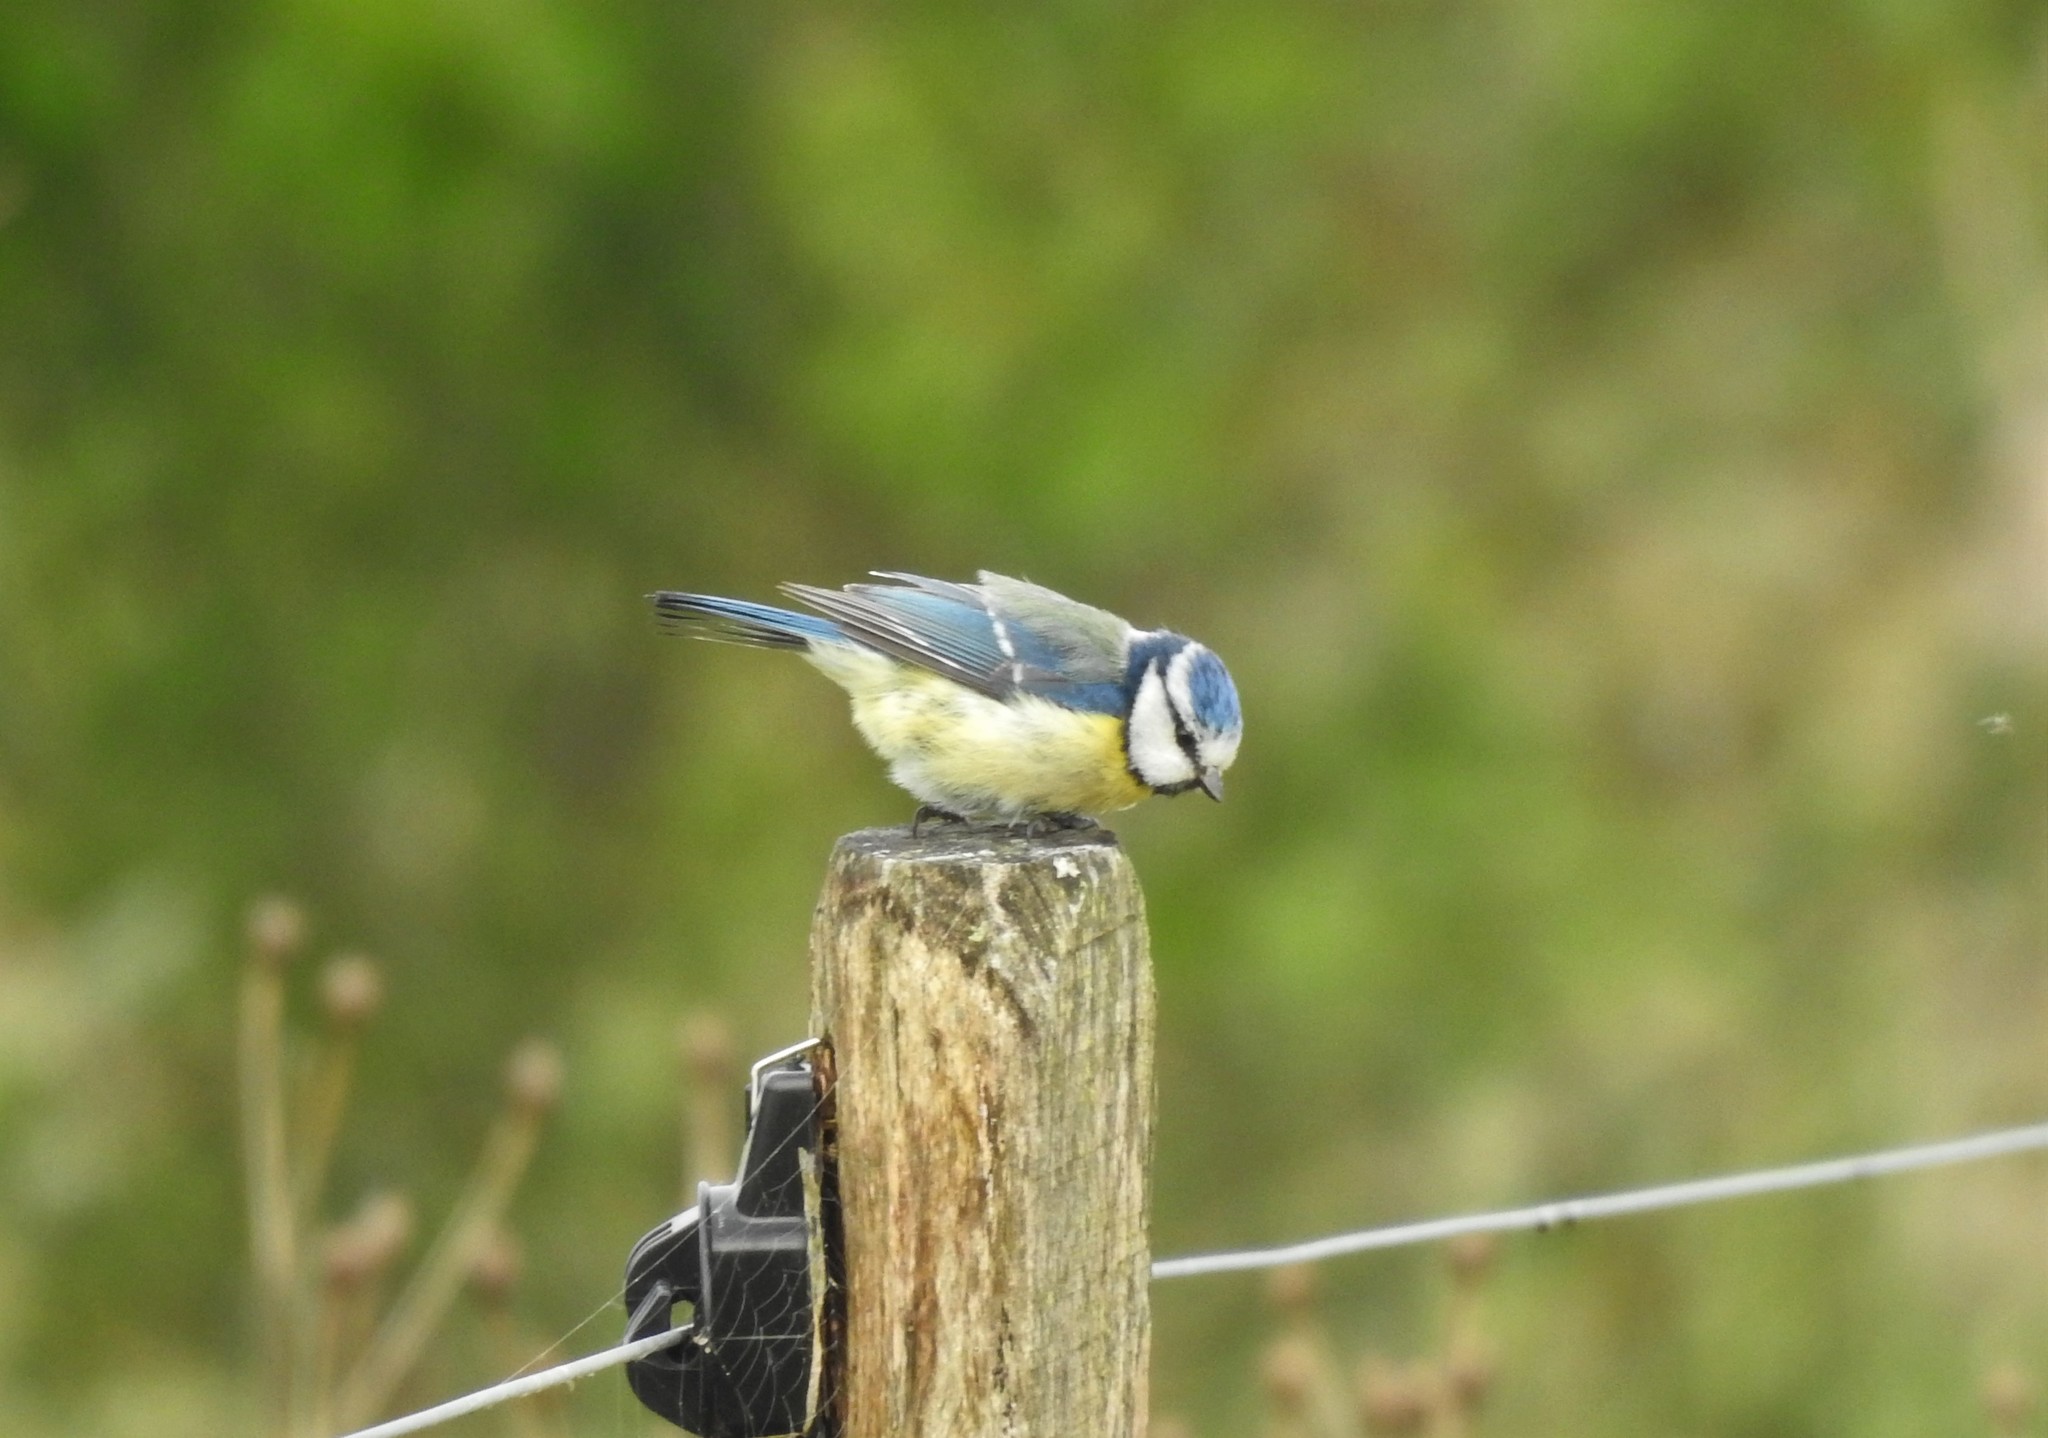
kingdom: Animalia
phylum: Chordata
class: Aves
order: Passeriformes
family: Paridae
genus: Cyanistes
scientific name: Cyanistes caeruleus
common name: Eurasian blue tit
